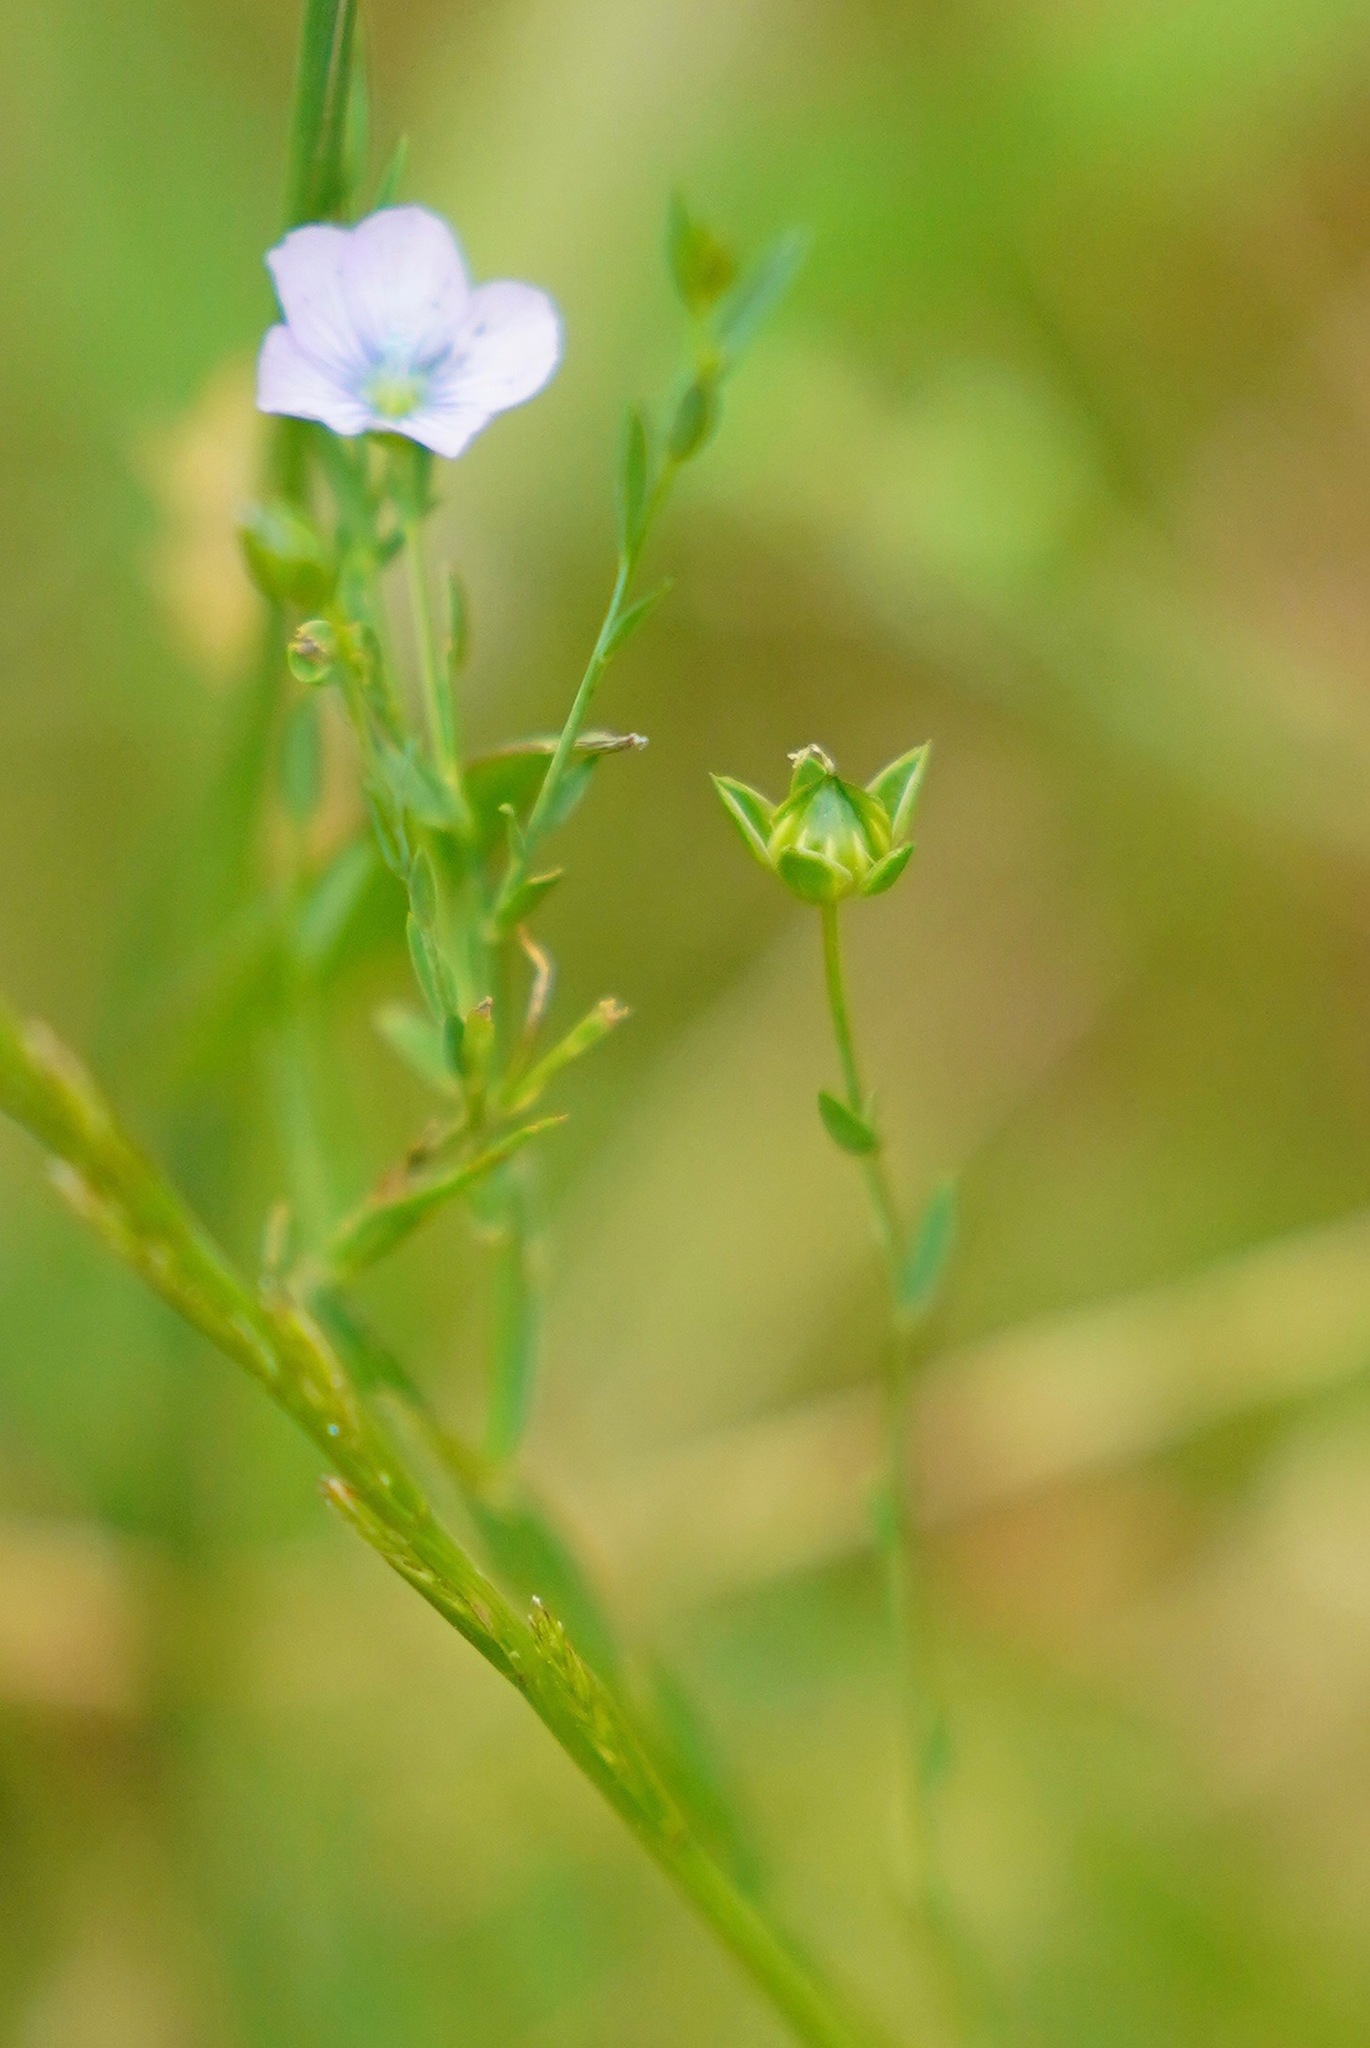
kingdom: Plantae
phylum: Tracheophyta
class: Magnoliopsida
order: Malpighiales
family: Linaceae
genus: Linum
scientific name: Linum bienne
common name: Pale flax
